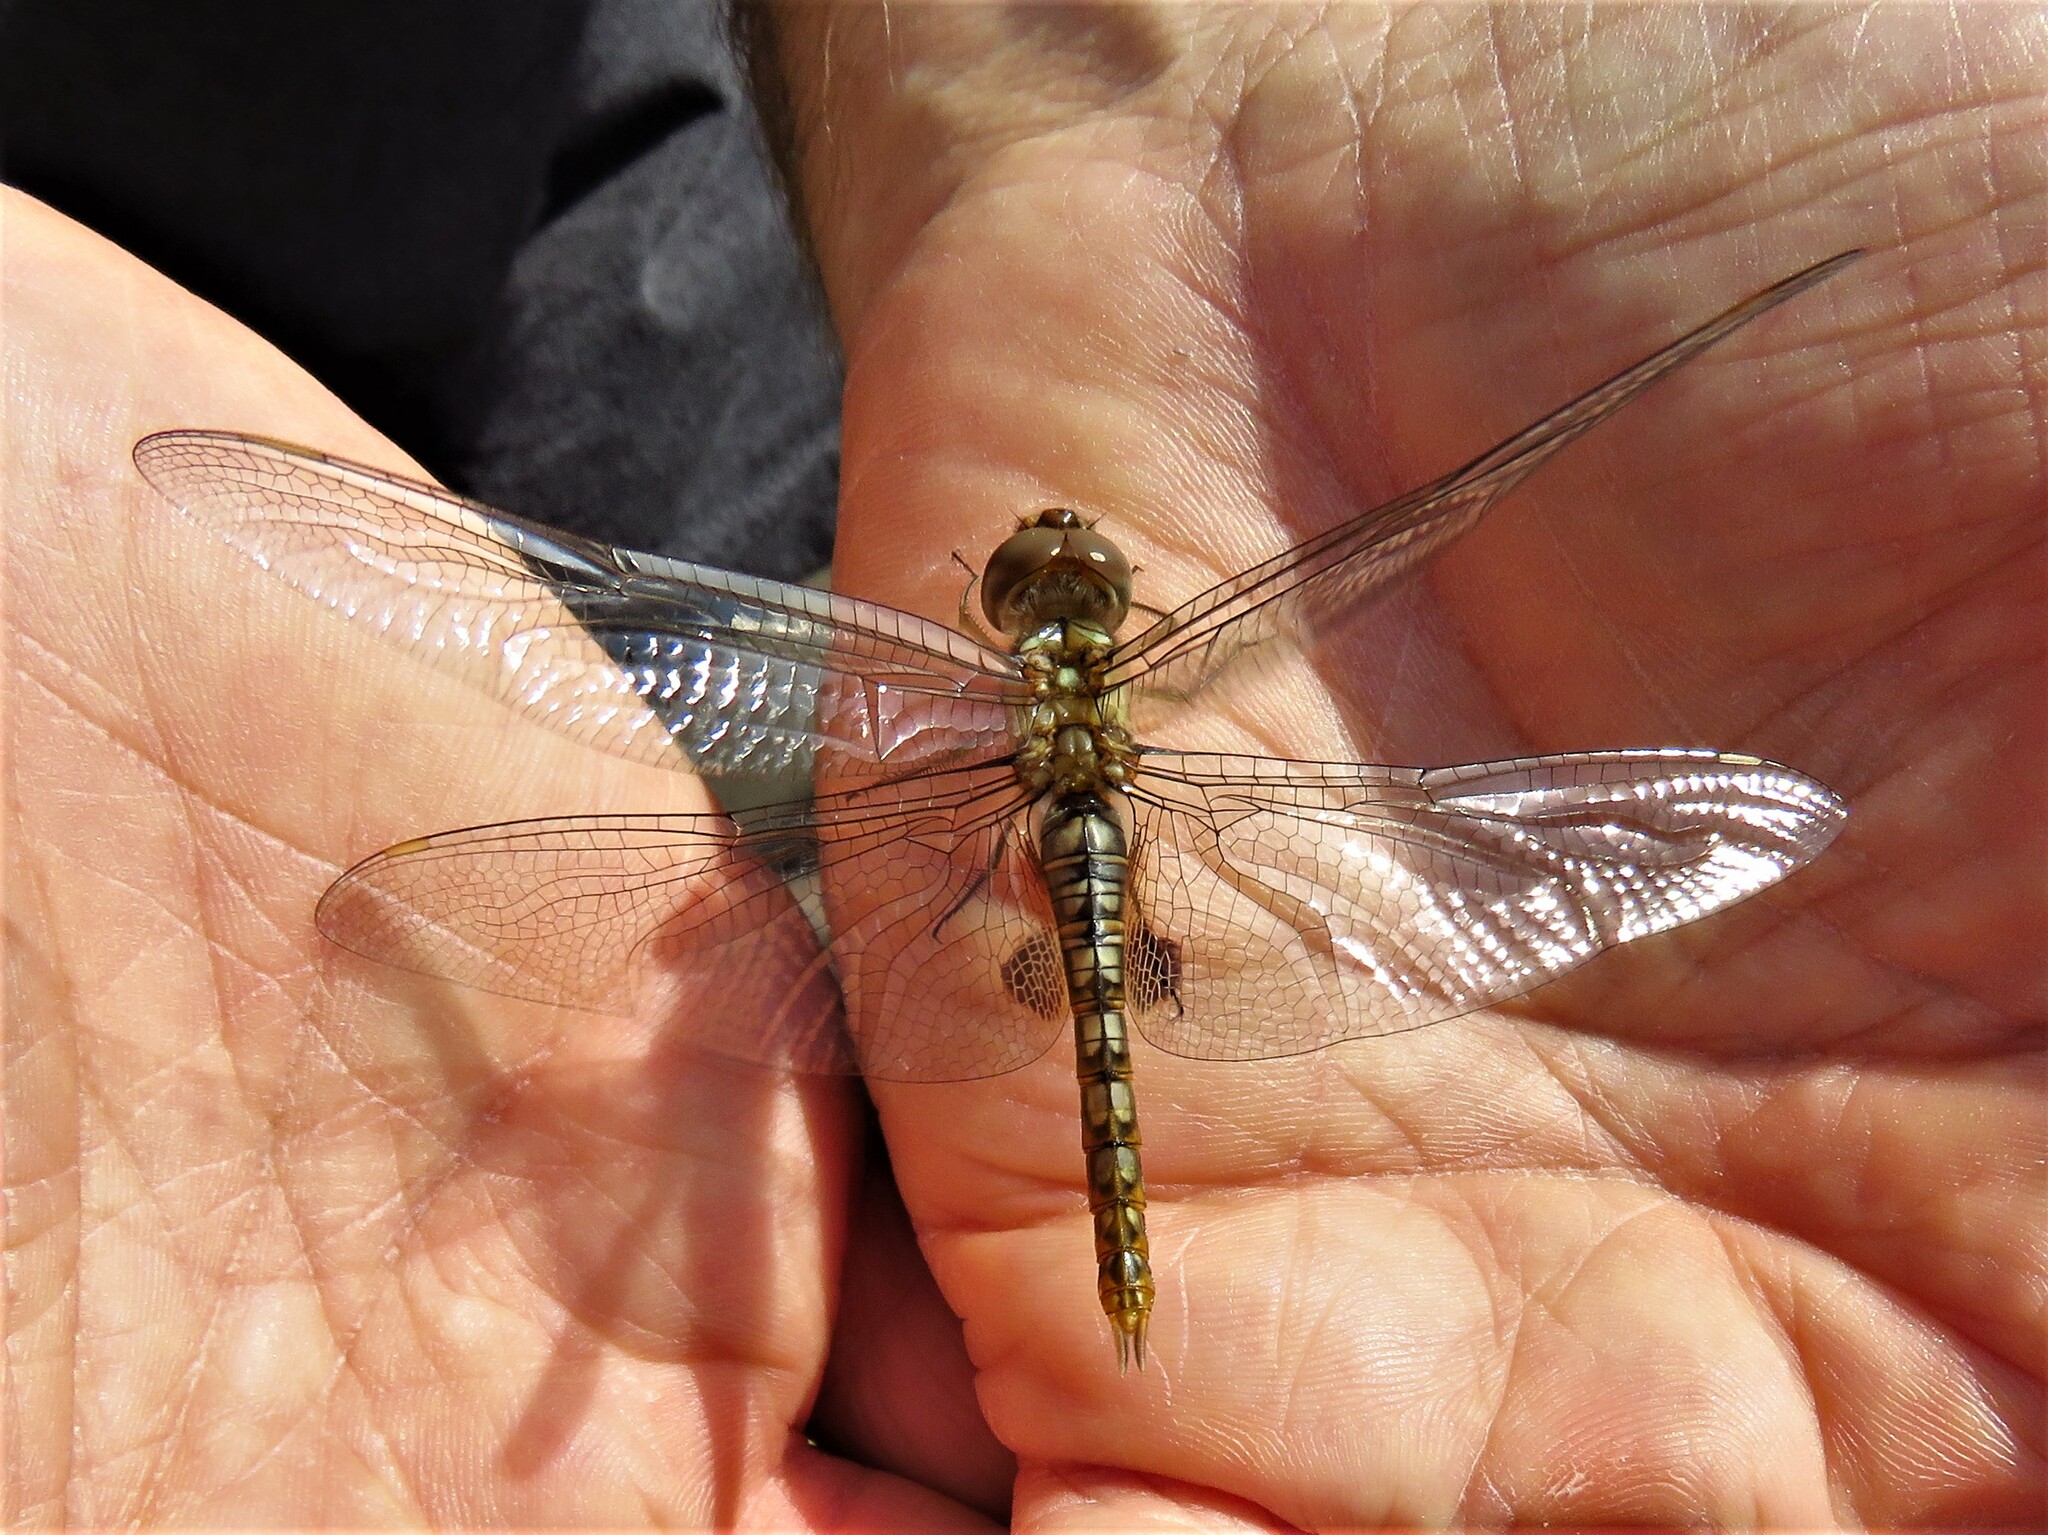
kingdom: Animalia
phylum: Arthropoda
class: Insecta
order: Odonata
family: Libellulidae
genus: Pantala
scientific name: Pantala hymenaea
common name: Spot-winged glider
